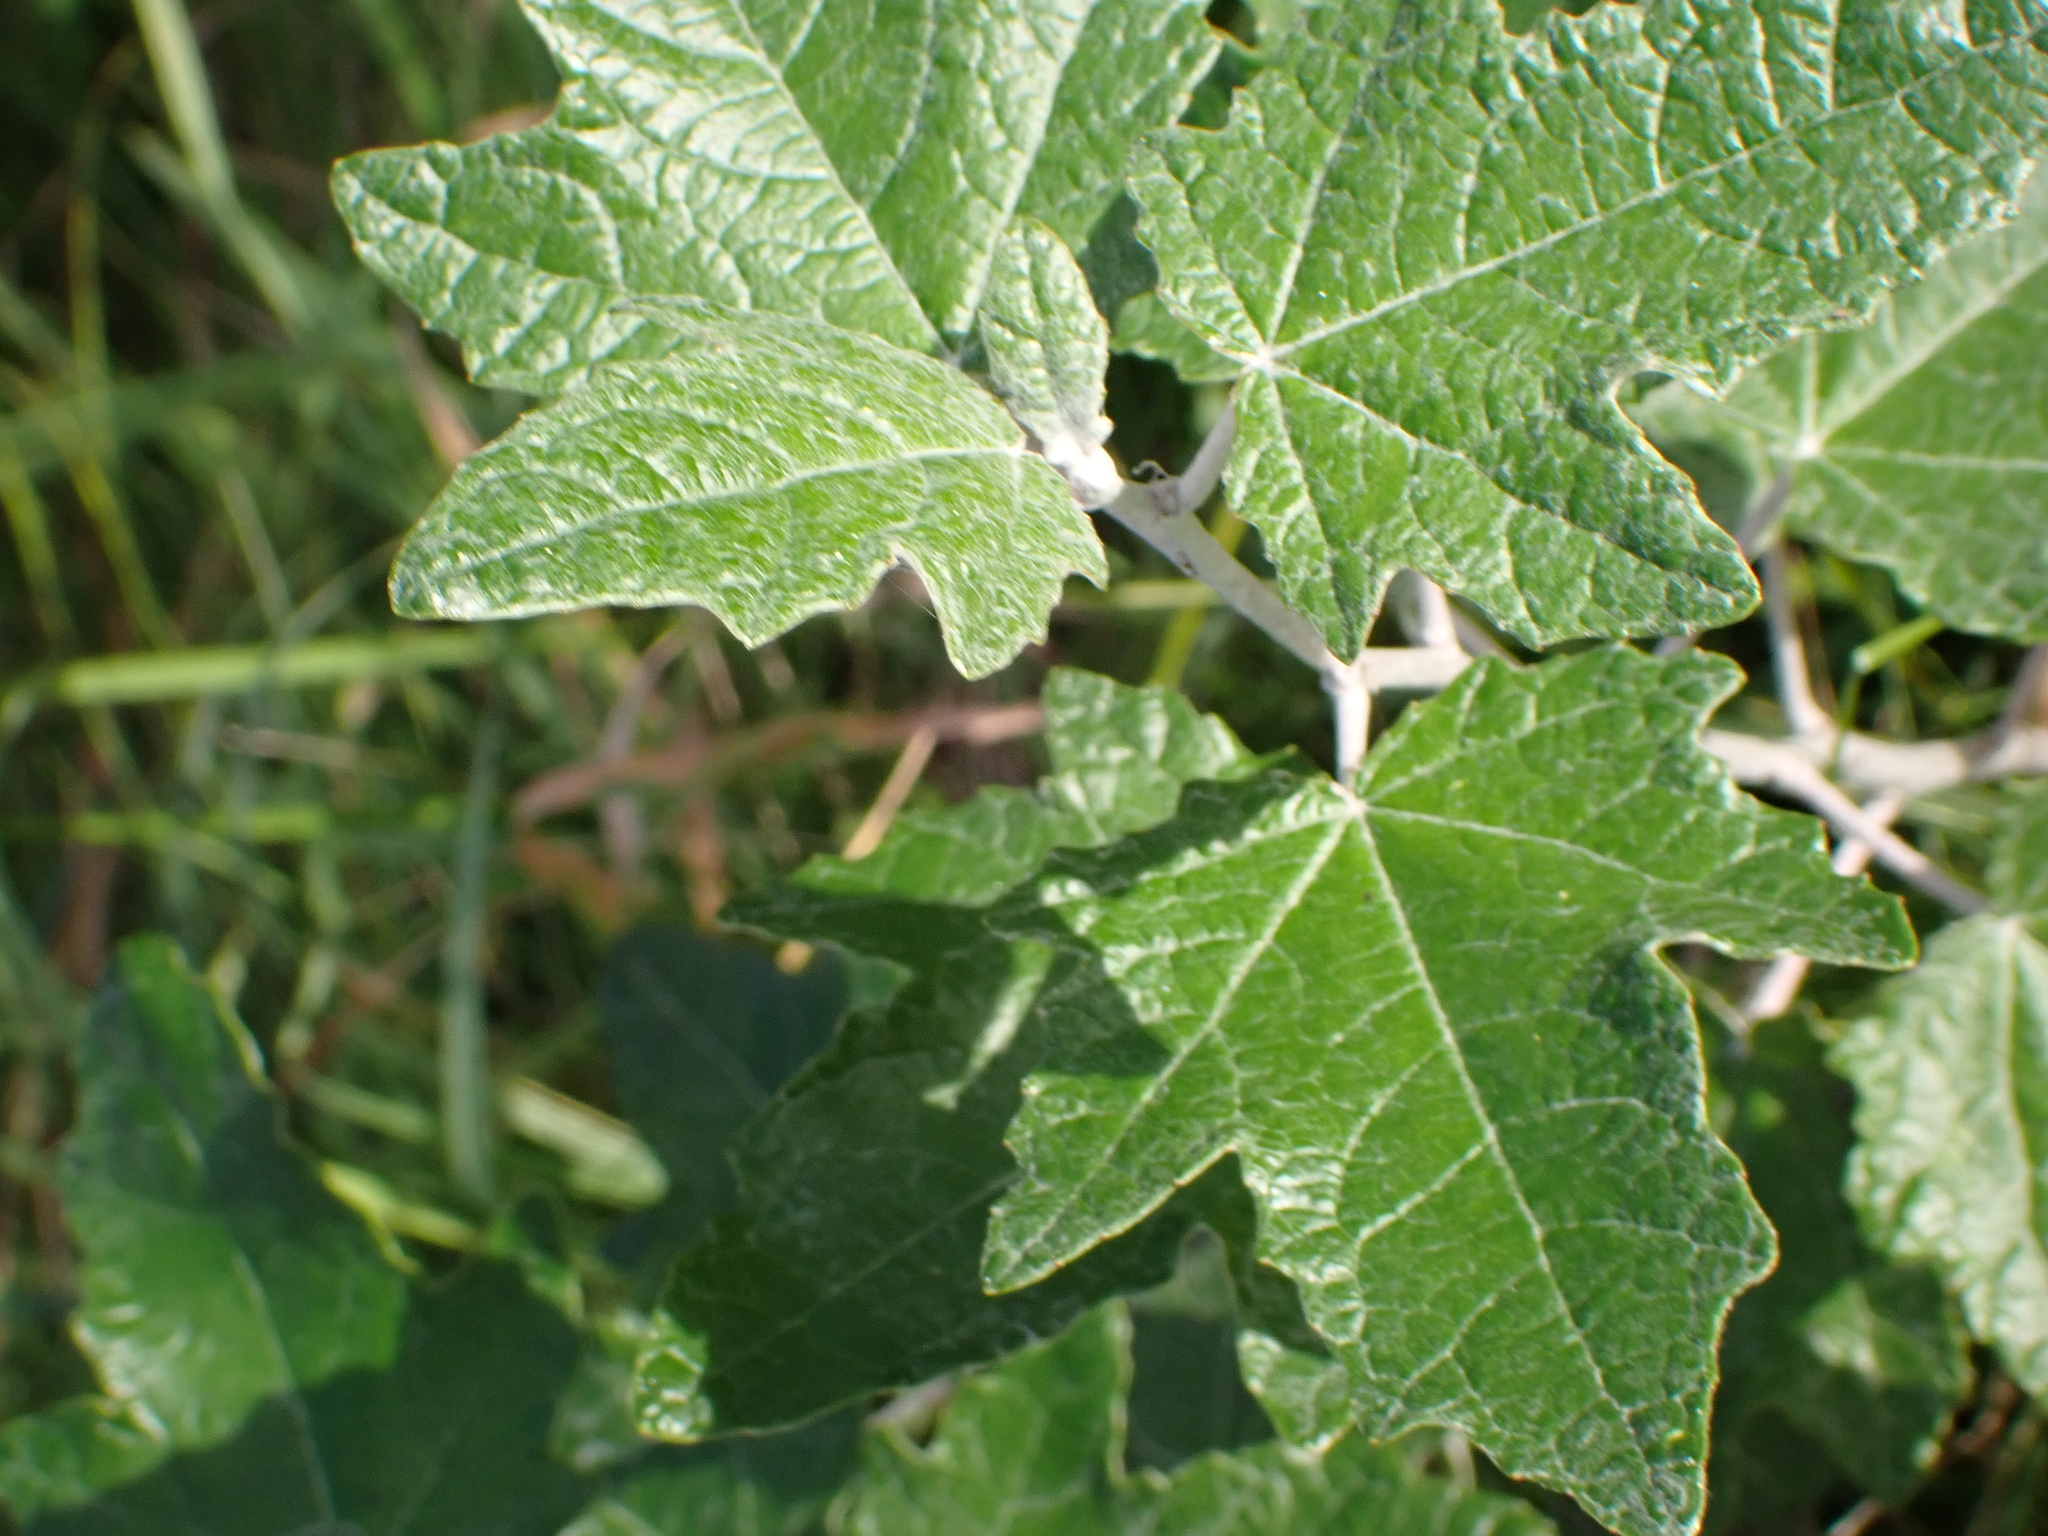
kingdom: Plantae
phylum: Tracheophyta
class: Magnoliopsida
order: Malpighiales
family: Salicaceae
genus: Populus
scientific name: Populus alba
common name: White poplar
